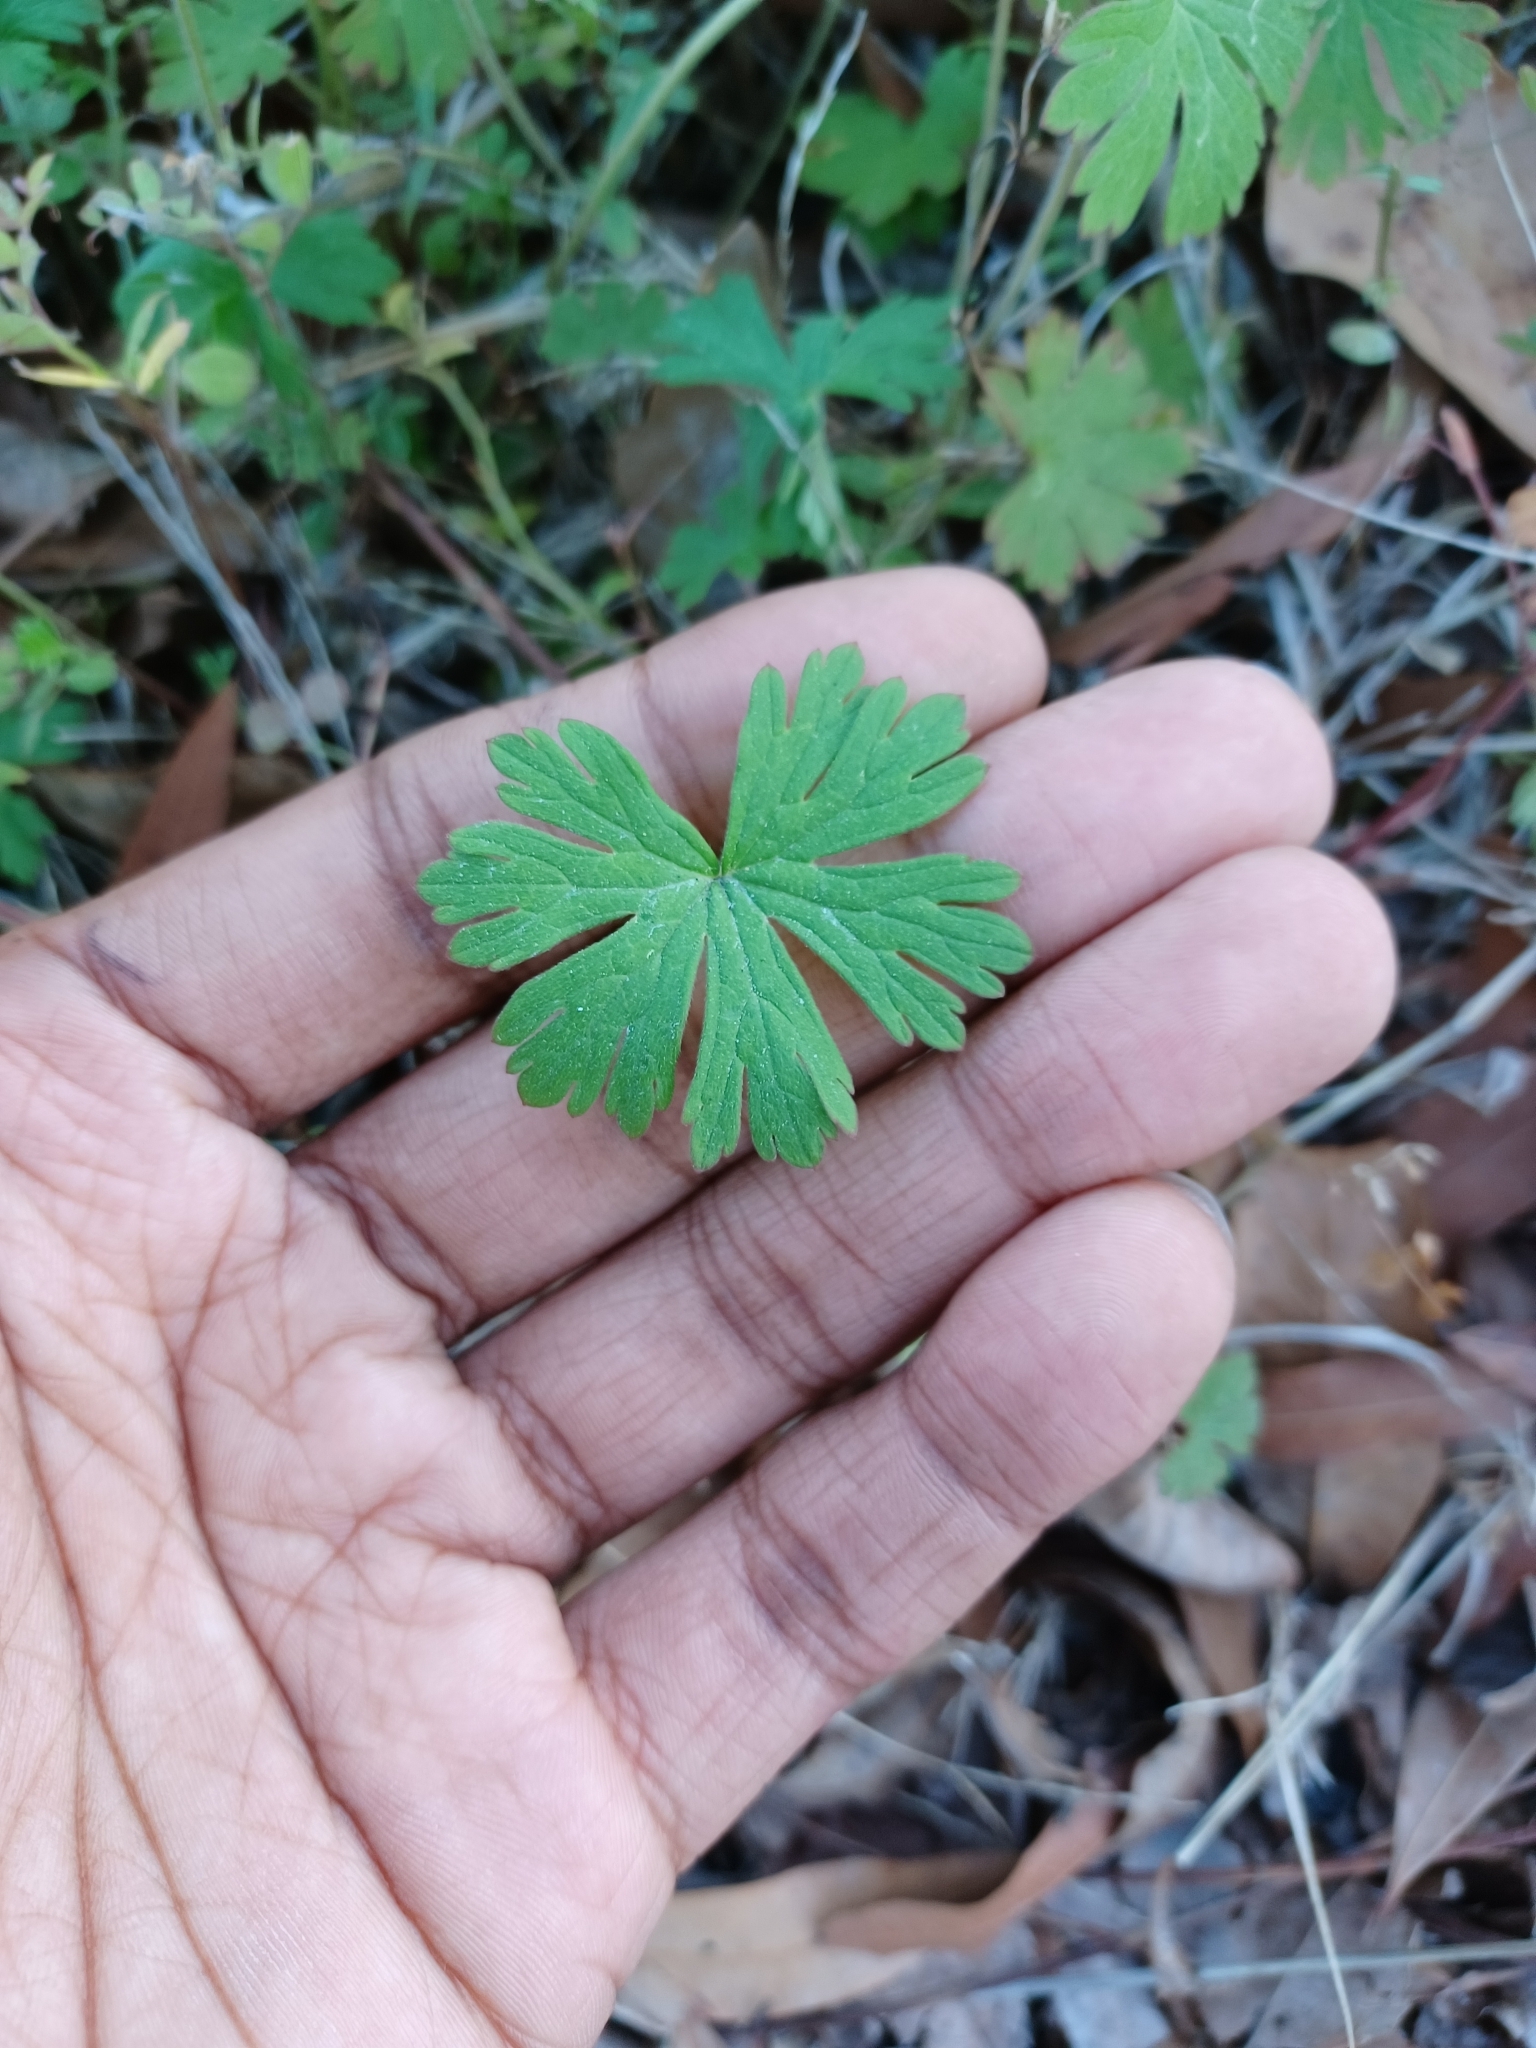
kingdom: Plantae
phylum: Tracheophyta
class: Magnoliopsida
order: Geraniales
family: Geraniaceae
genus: Geranium
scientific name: Geranium carolinianum
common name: Carolina crane's-bill
